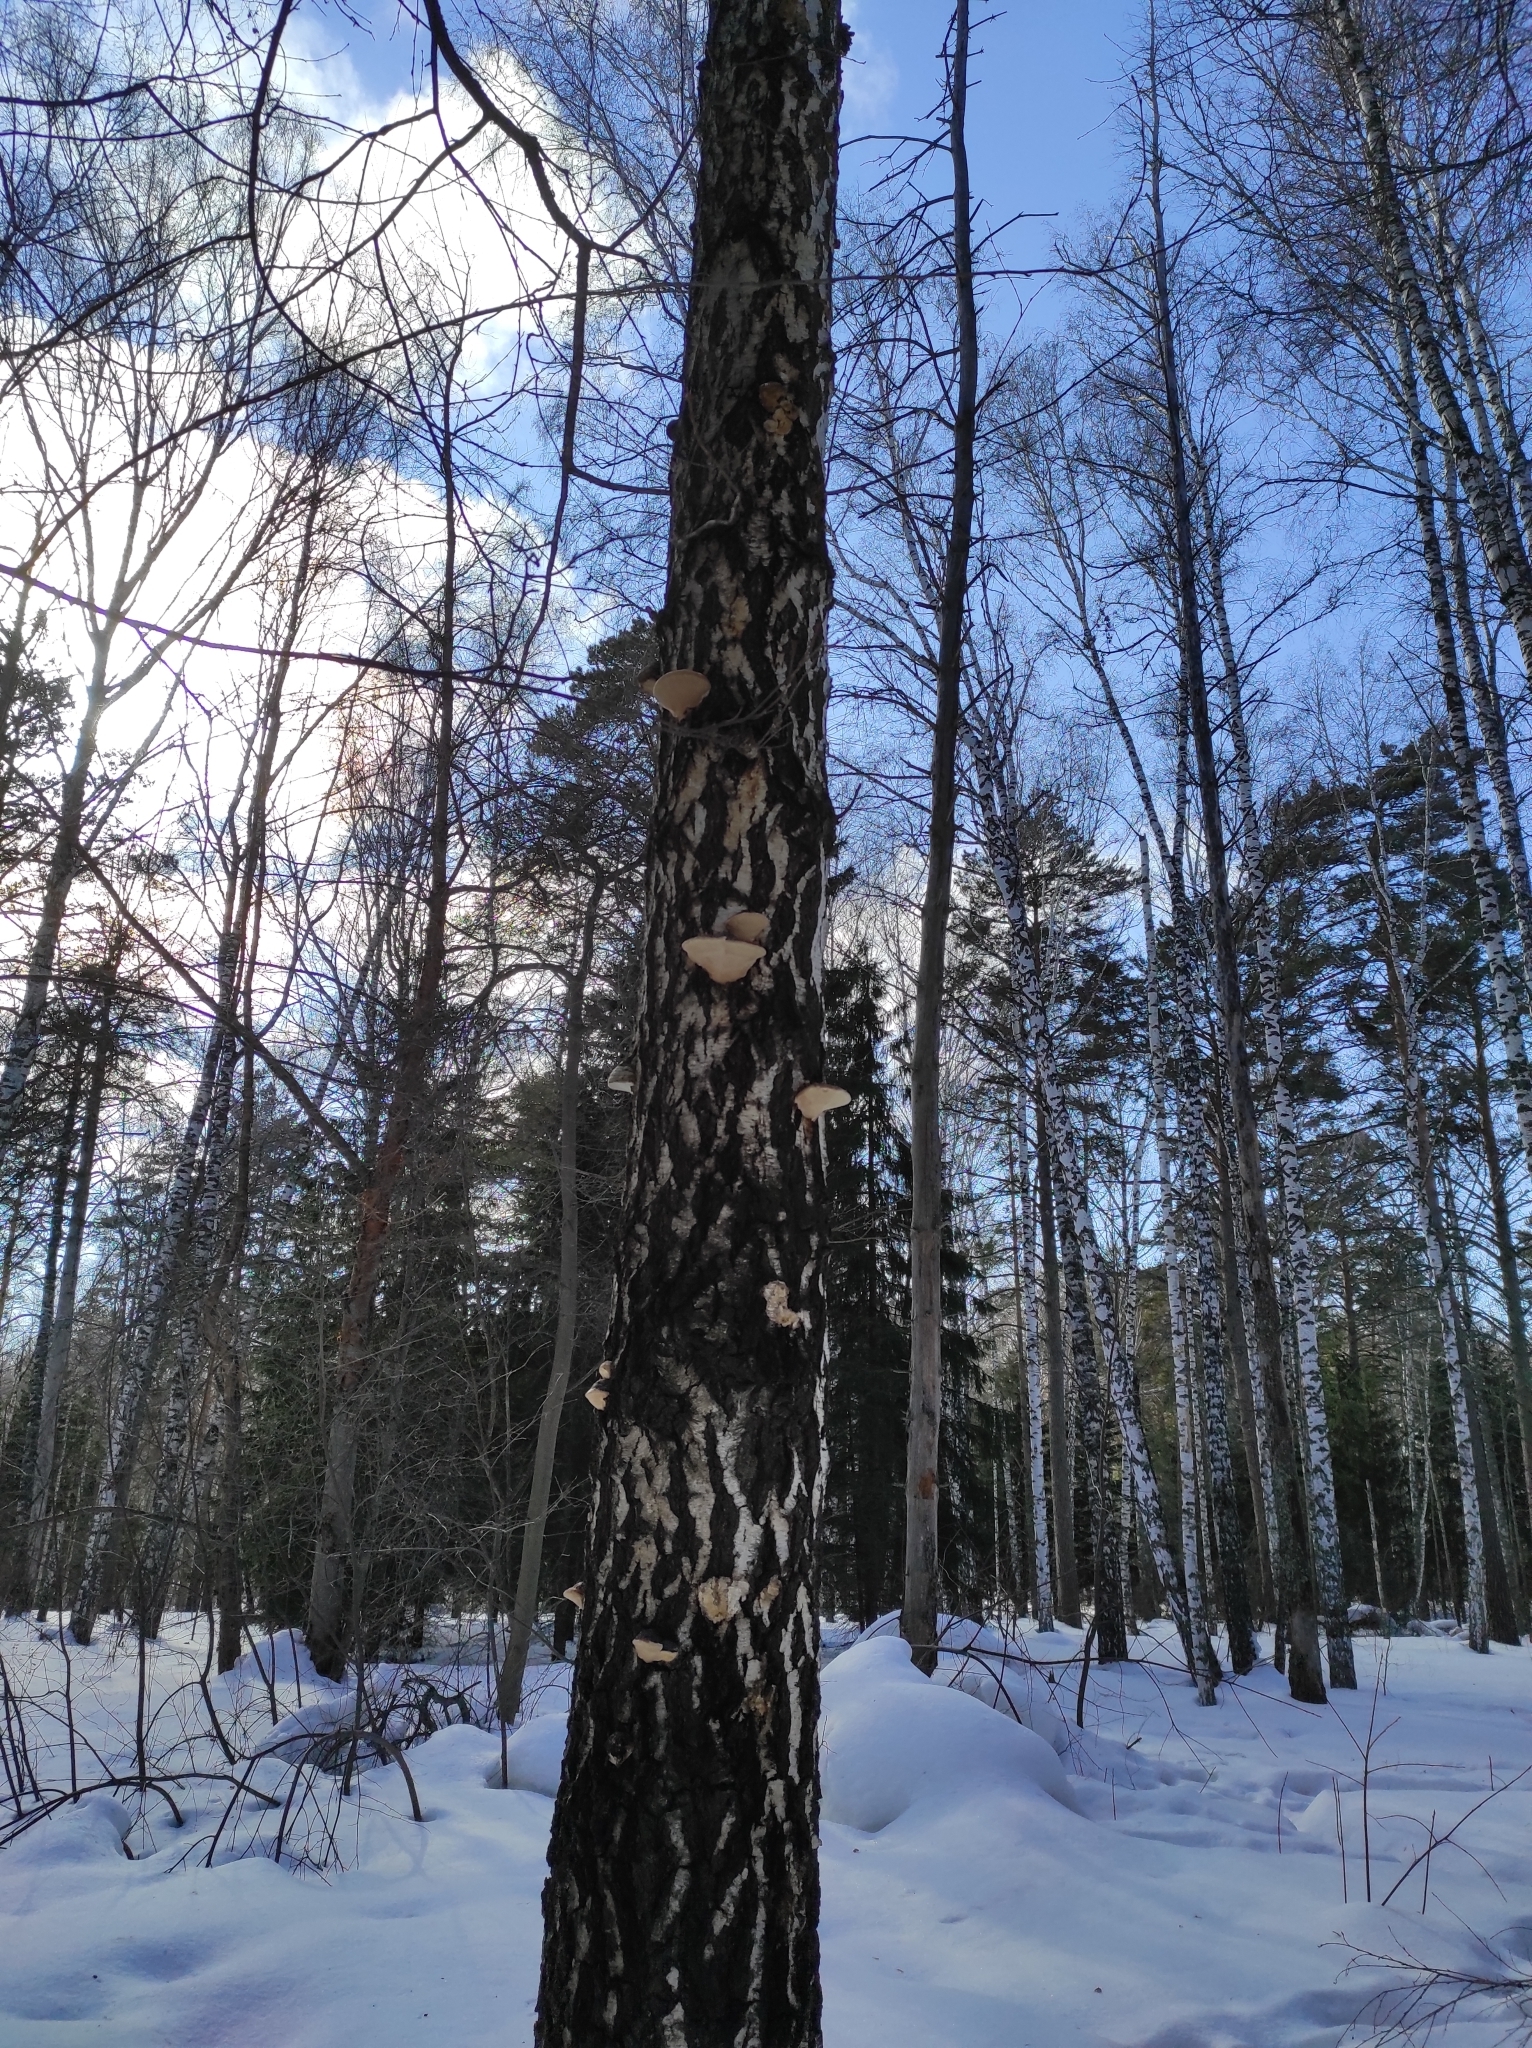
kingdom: Fungi
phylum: Basidiomycota
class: Agaricomycetes
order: Polyporales
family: Fomitopsidaceae
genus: Fomitopsis
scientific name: Fomitopsis pinicola
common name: Red-belted bracket
